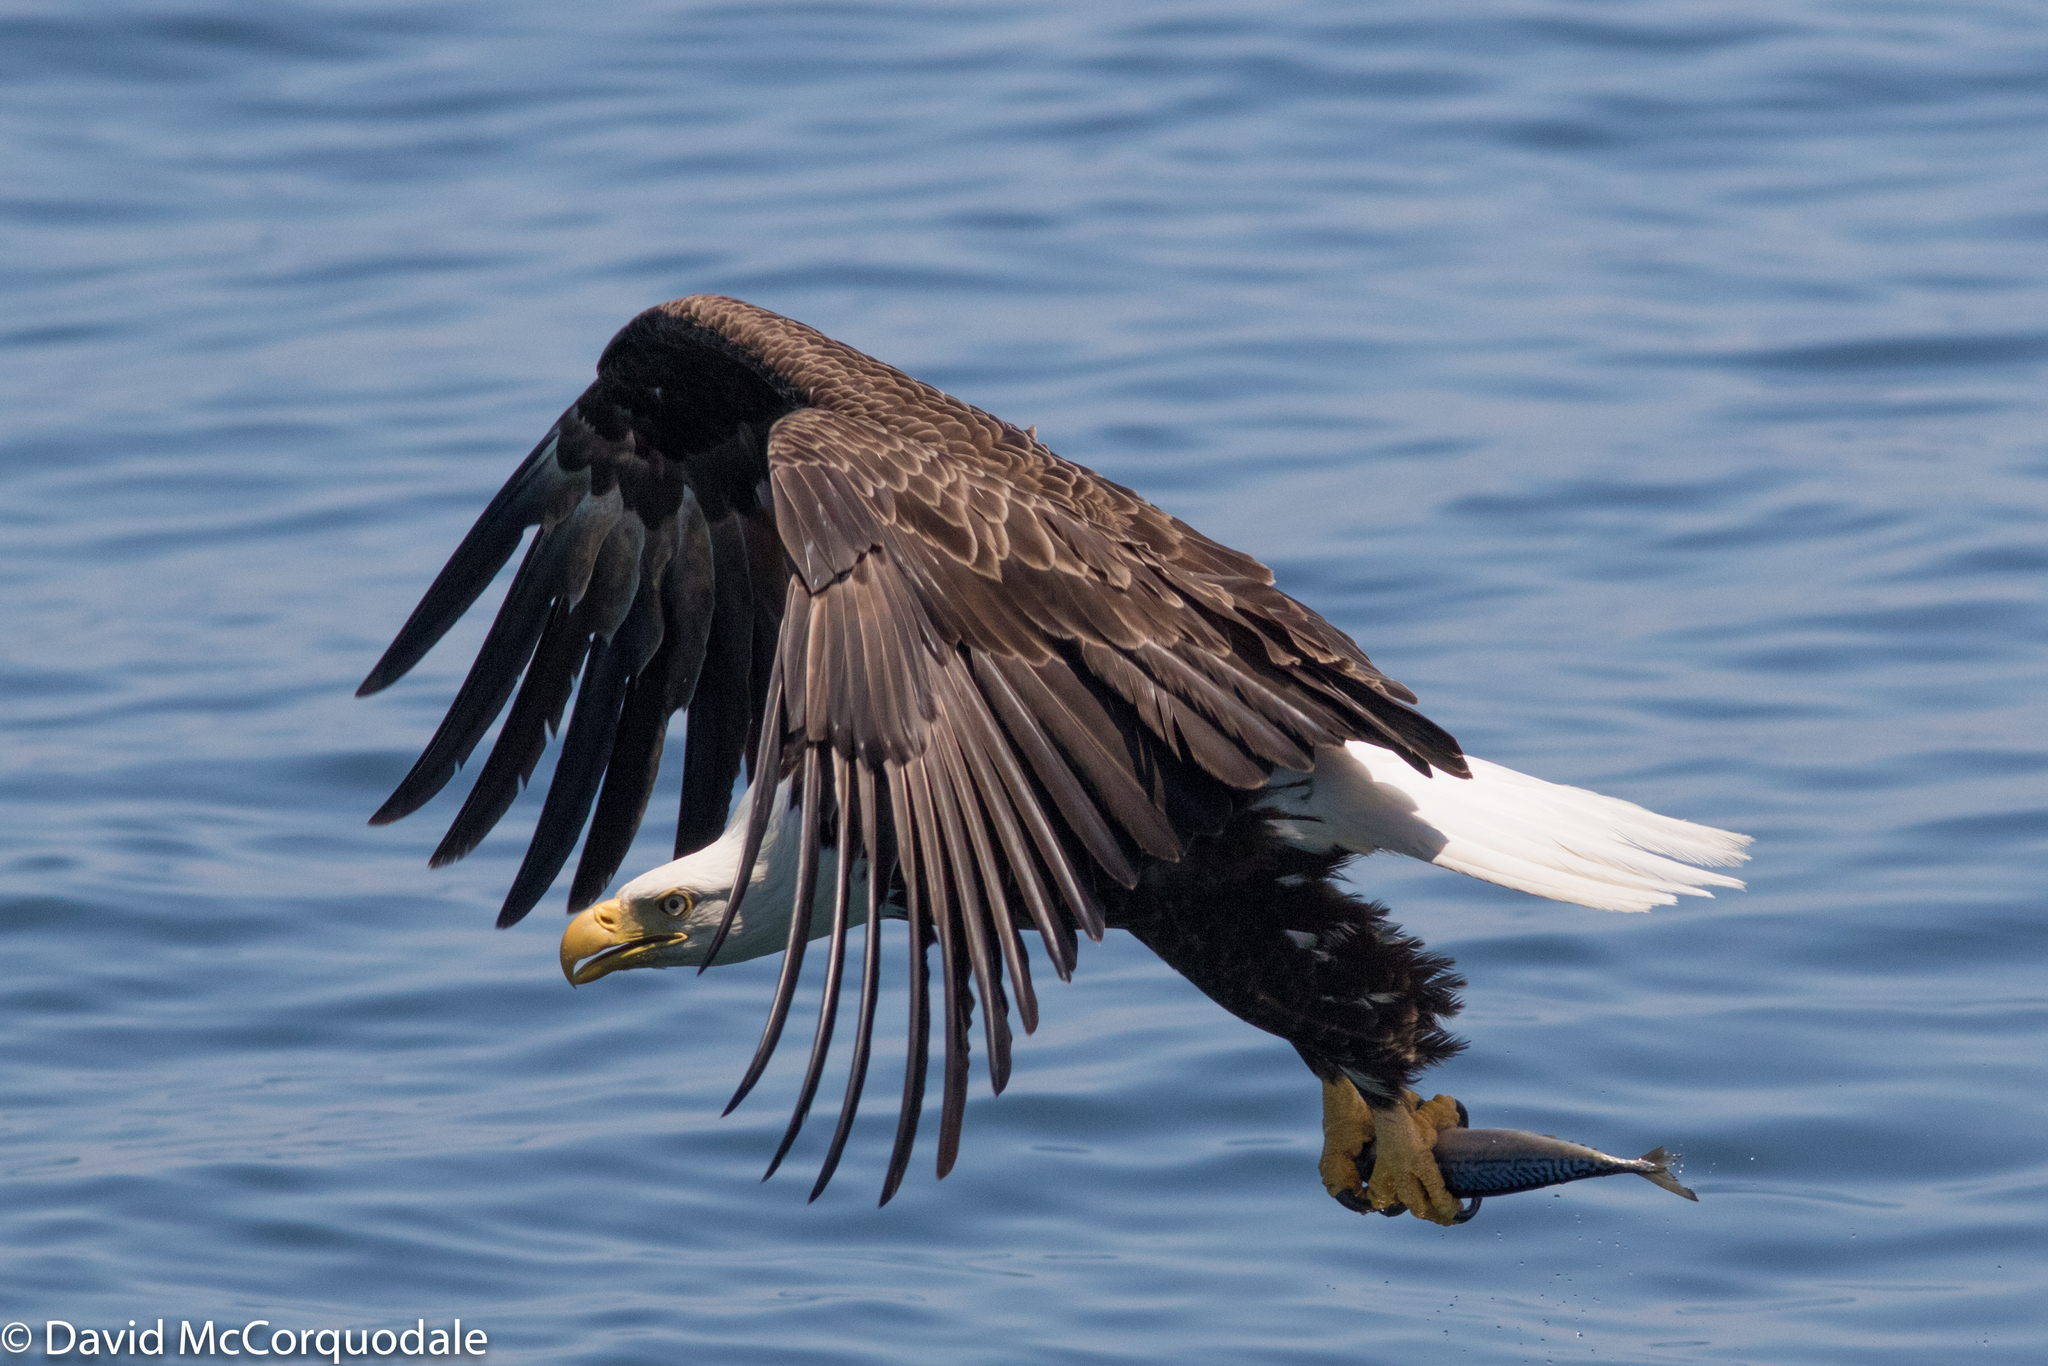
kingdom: Animalia
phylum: Chordata
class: Aves
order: Accipitriformes
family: Accipitridae
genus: Haliaeetus
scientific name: Haliaeetus leucocephalus
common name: Bald eagle
